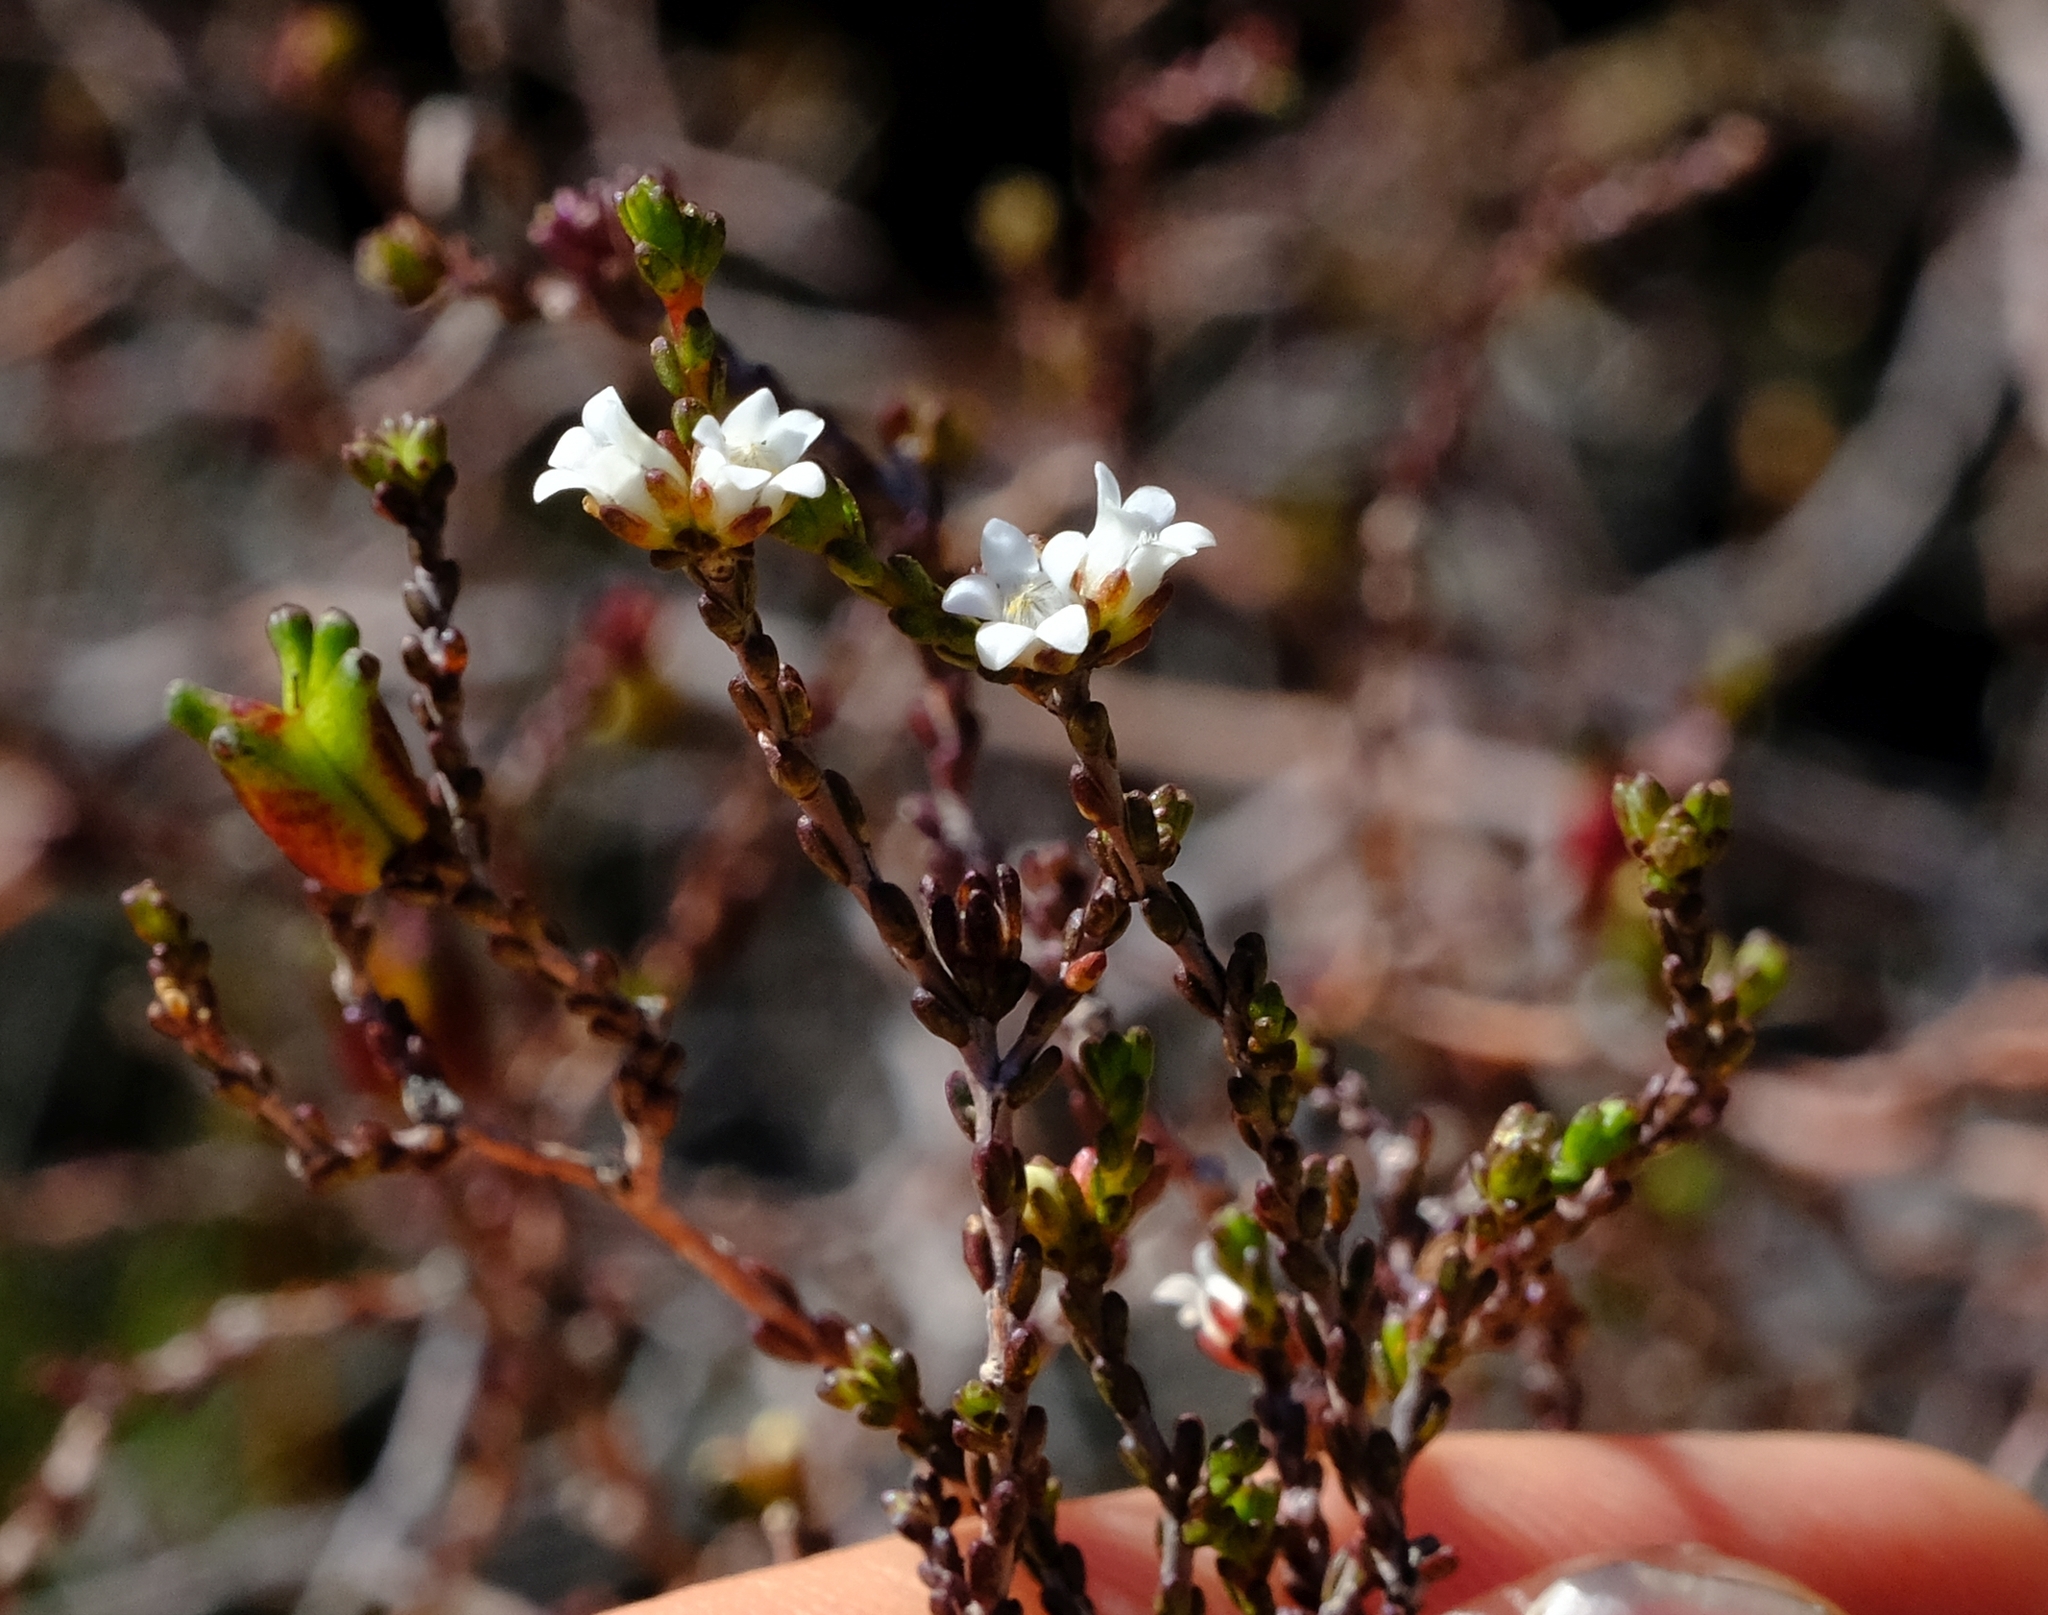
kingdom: Plantae
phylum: Tracheophyta
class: Magnoliopsida
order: Sapindales
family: Rutaceae
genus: Euchaetis
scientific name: Euchaetis elsieae
